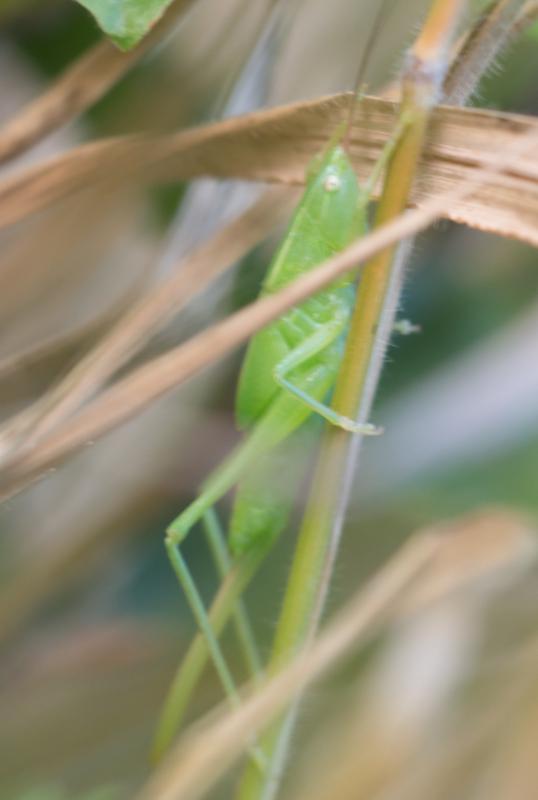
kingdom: Animalia
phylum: Arthropoda
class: Insecta
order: Orthoptera
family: Tettigoniidae
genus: Ruspolia
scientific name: Ruspolia nitidula
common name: Large conehead
